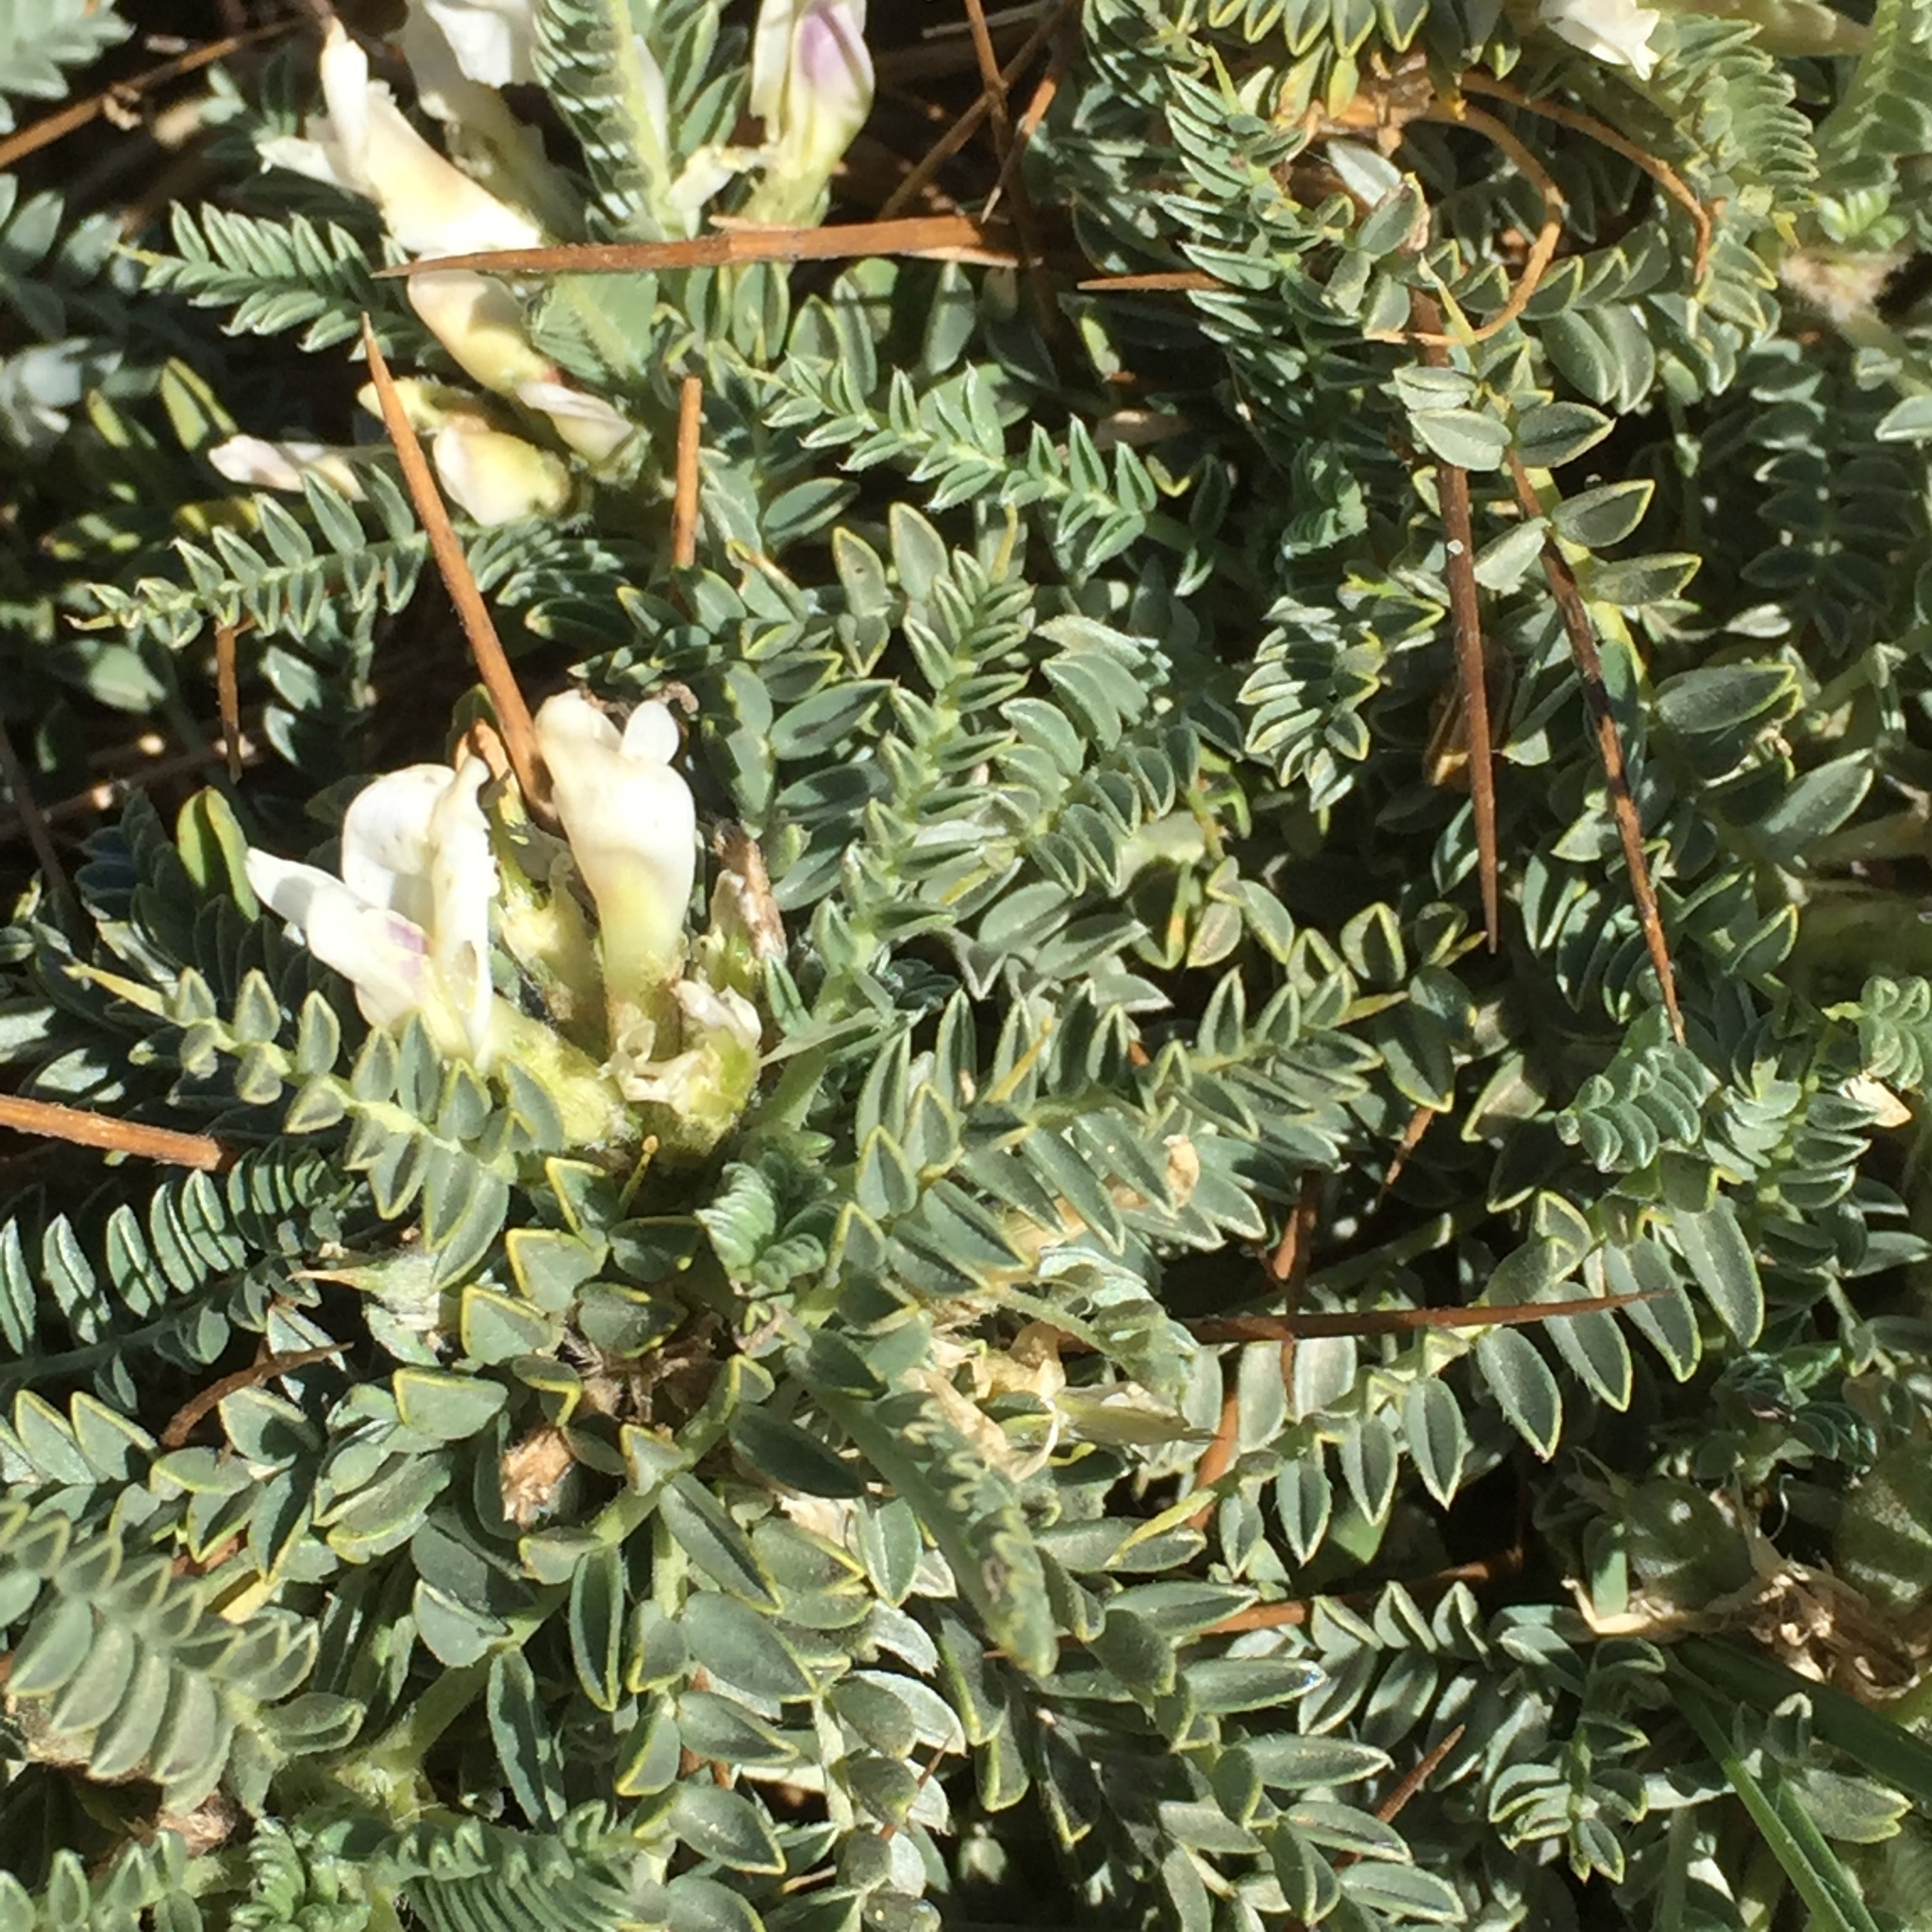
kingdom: Plantae
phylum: Tracheophyta
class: Magnoliopsida
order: Fabales
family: Fabaceae
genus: Astragalus
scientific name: Astragalus tragacantha
